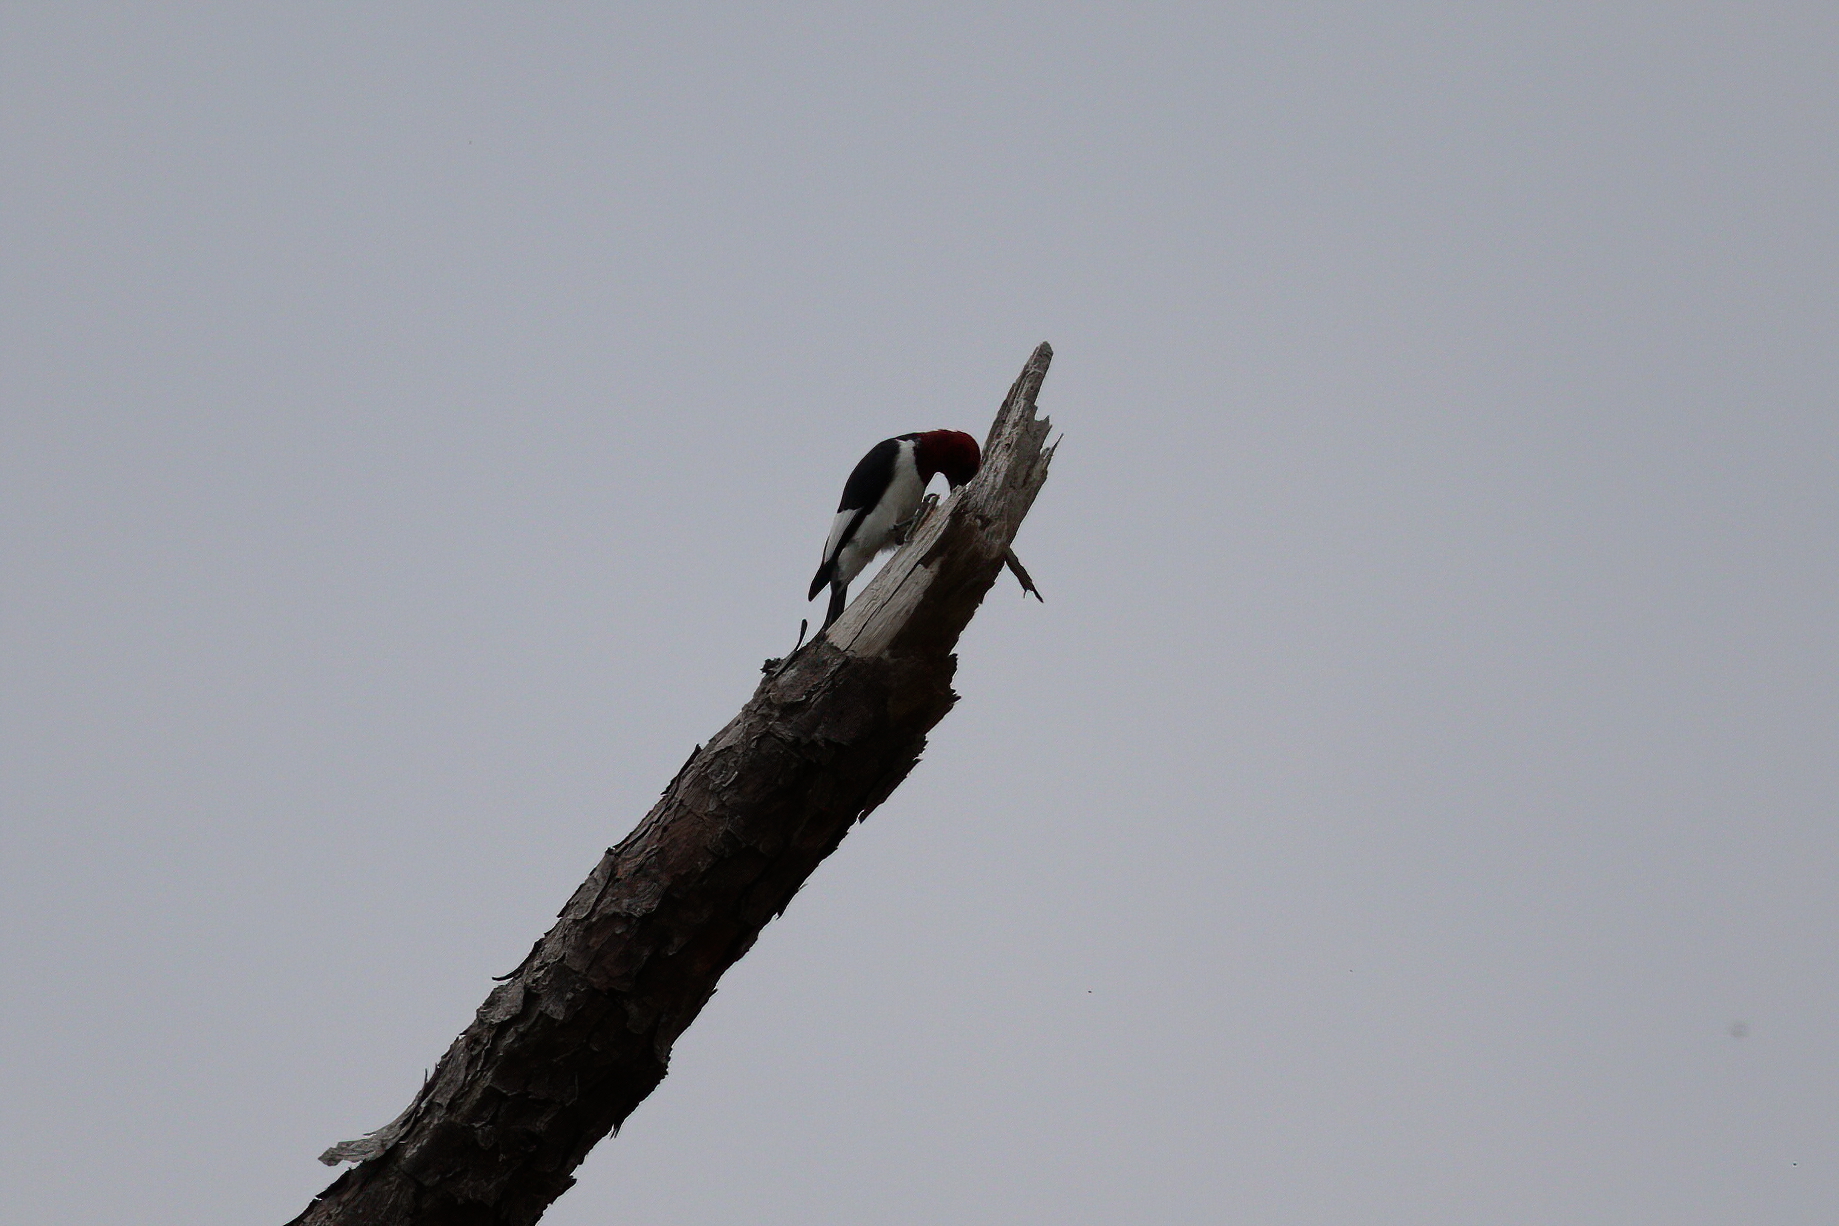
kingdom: Animalia
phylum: Chordata
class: Aves
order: Piciformes
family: Picidae
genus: Melanerpes
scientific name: Melanerpes erythrocephalus
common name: Red-headed woodpecker
